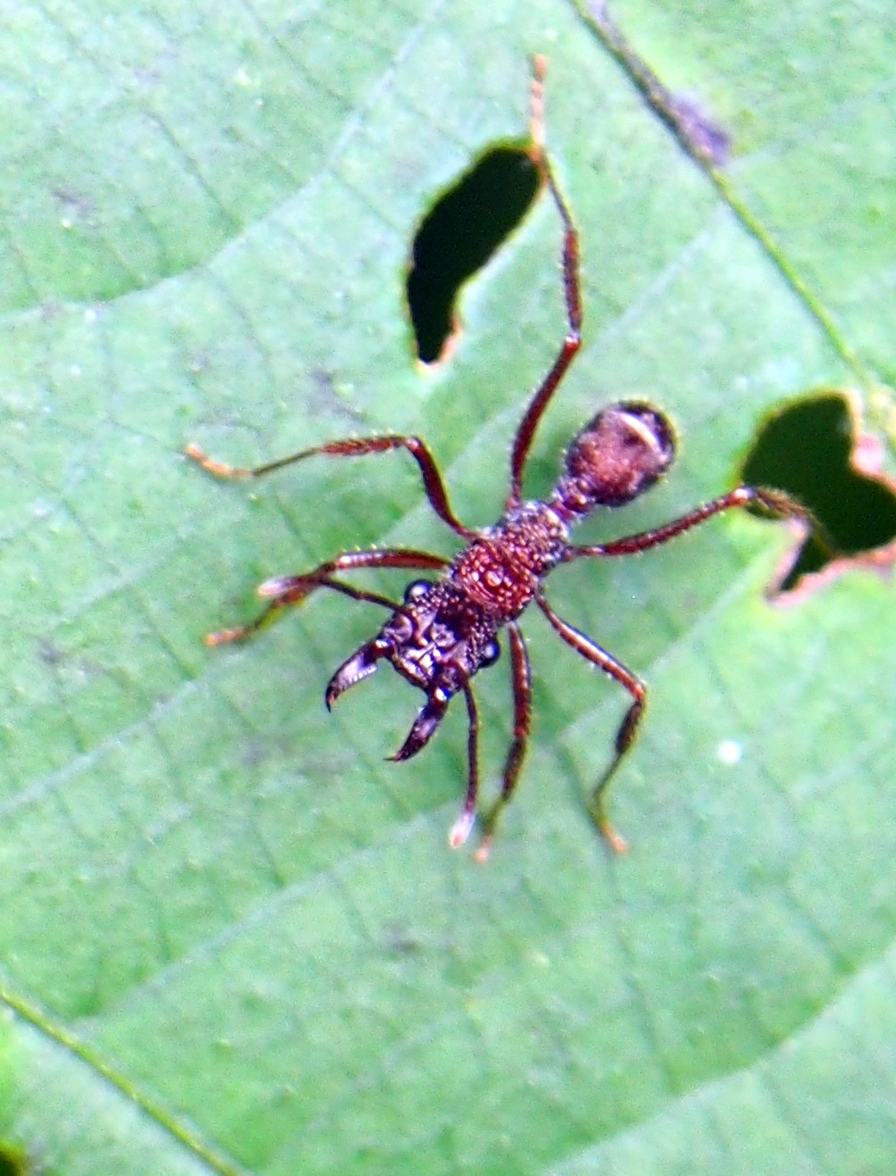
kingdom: Animalia
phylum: Arthropoda
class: Insecta
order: Hymenoptera
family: Formicidae
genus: Ectatomma
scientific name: Ectatomma ruidum
